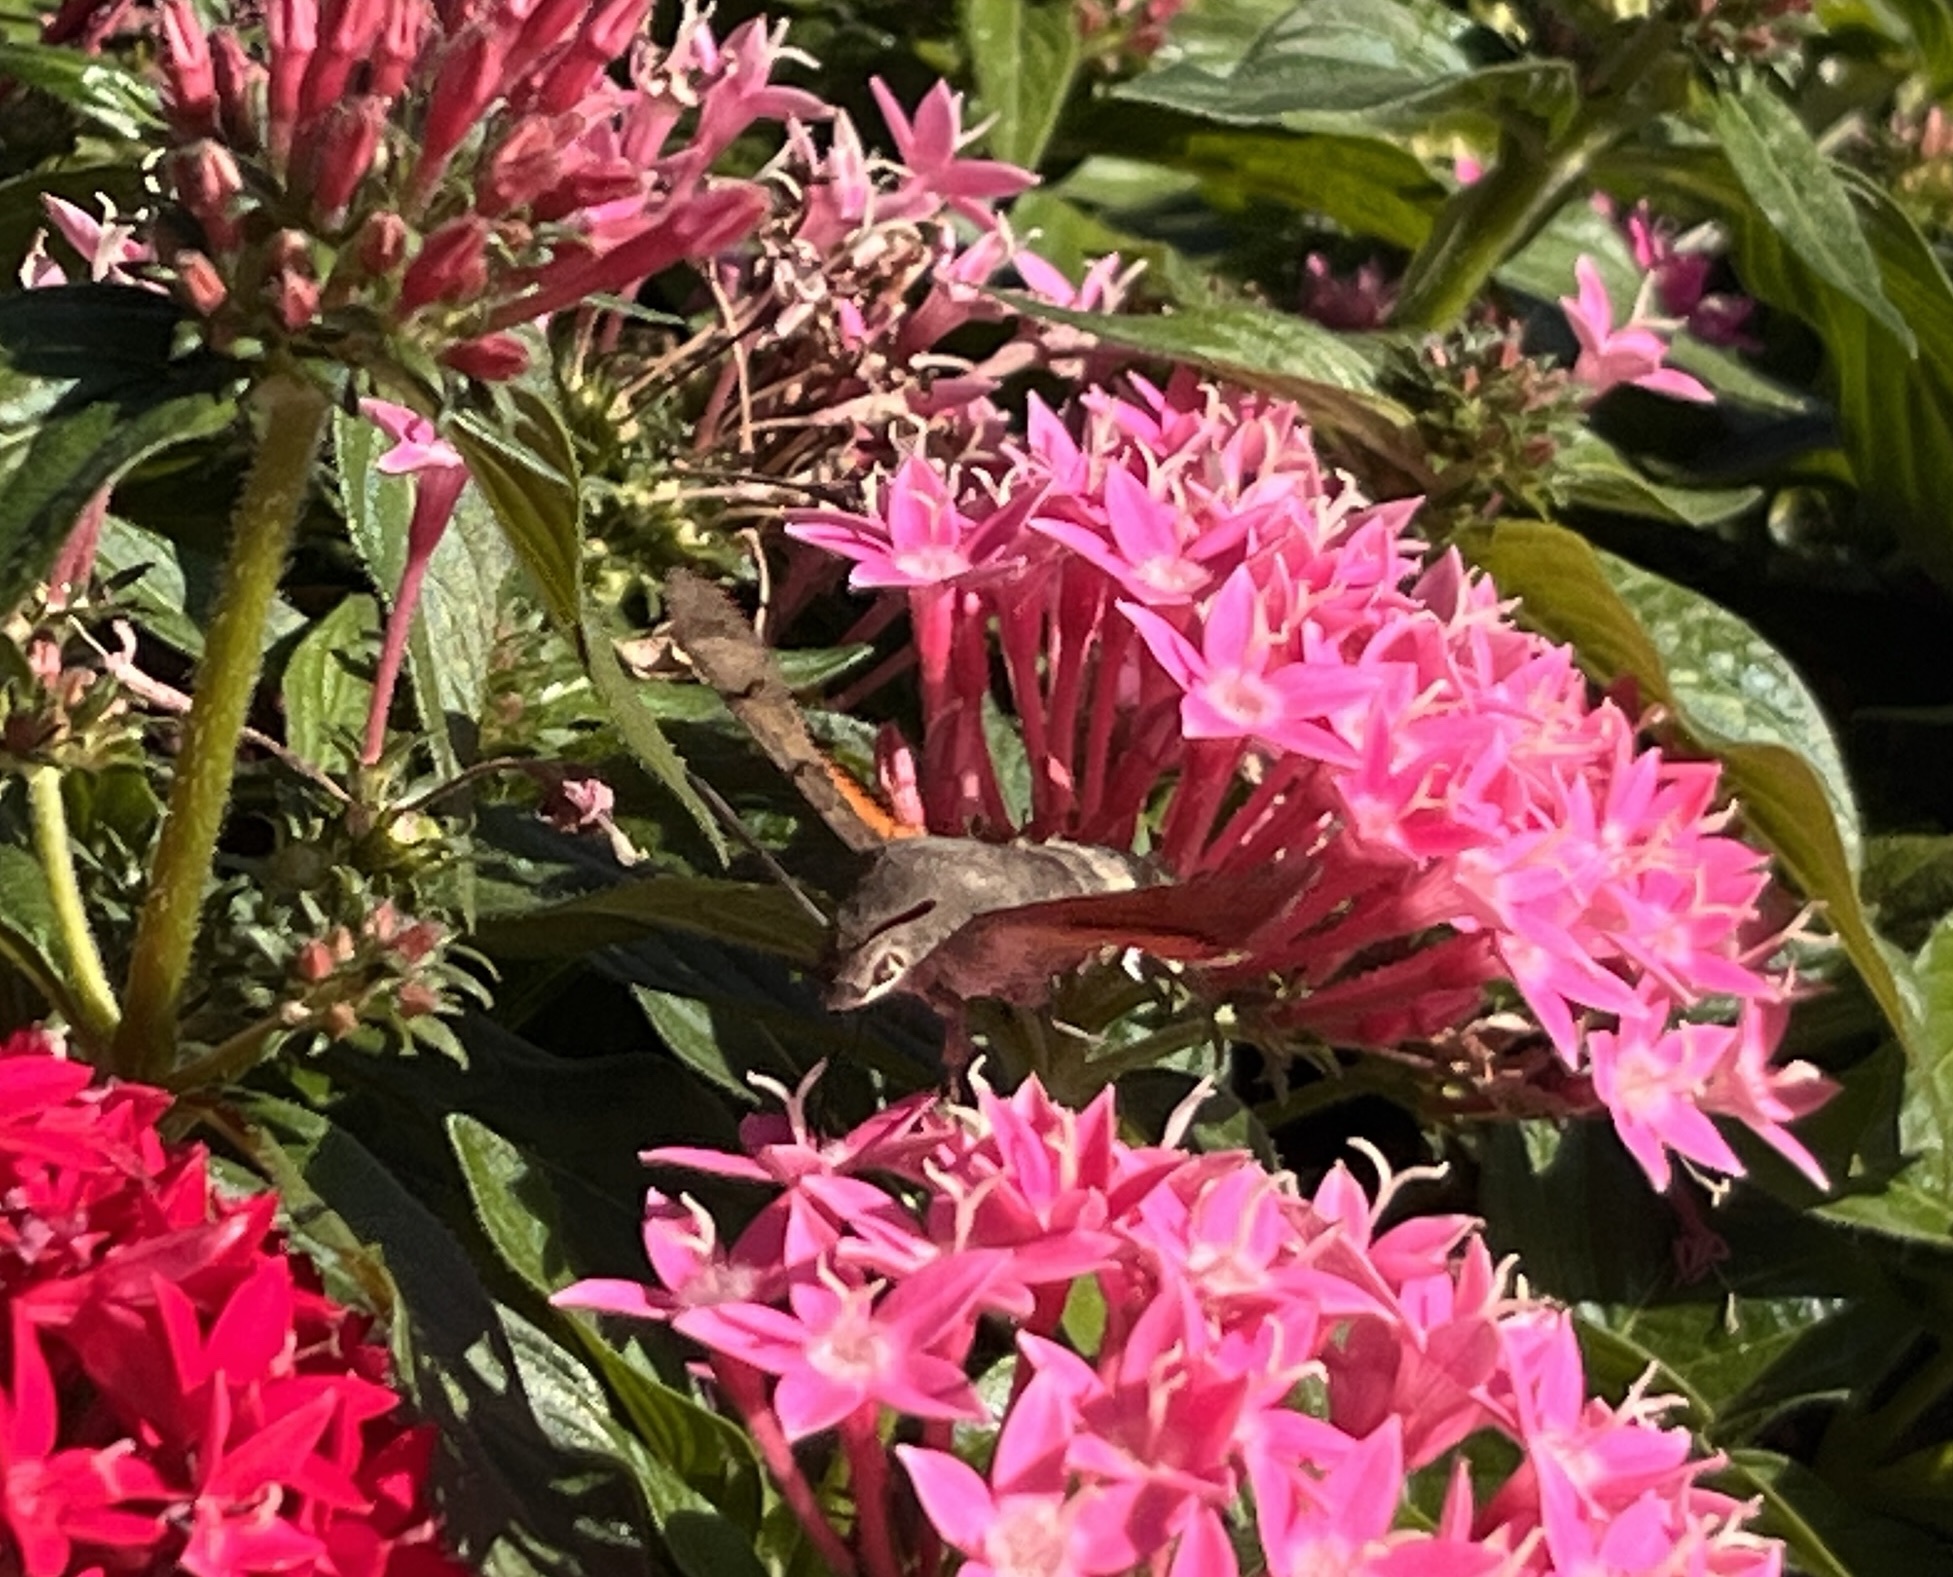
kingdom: Animalia
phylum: Arthropoda
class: Insecta
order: Lepidoptera
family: Sphingidae
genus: Macroglossum
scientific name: Macroglossum stellatarum
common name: Humming-bird hawk-moth
